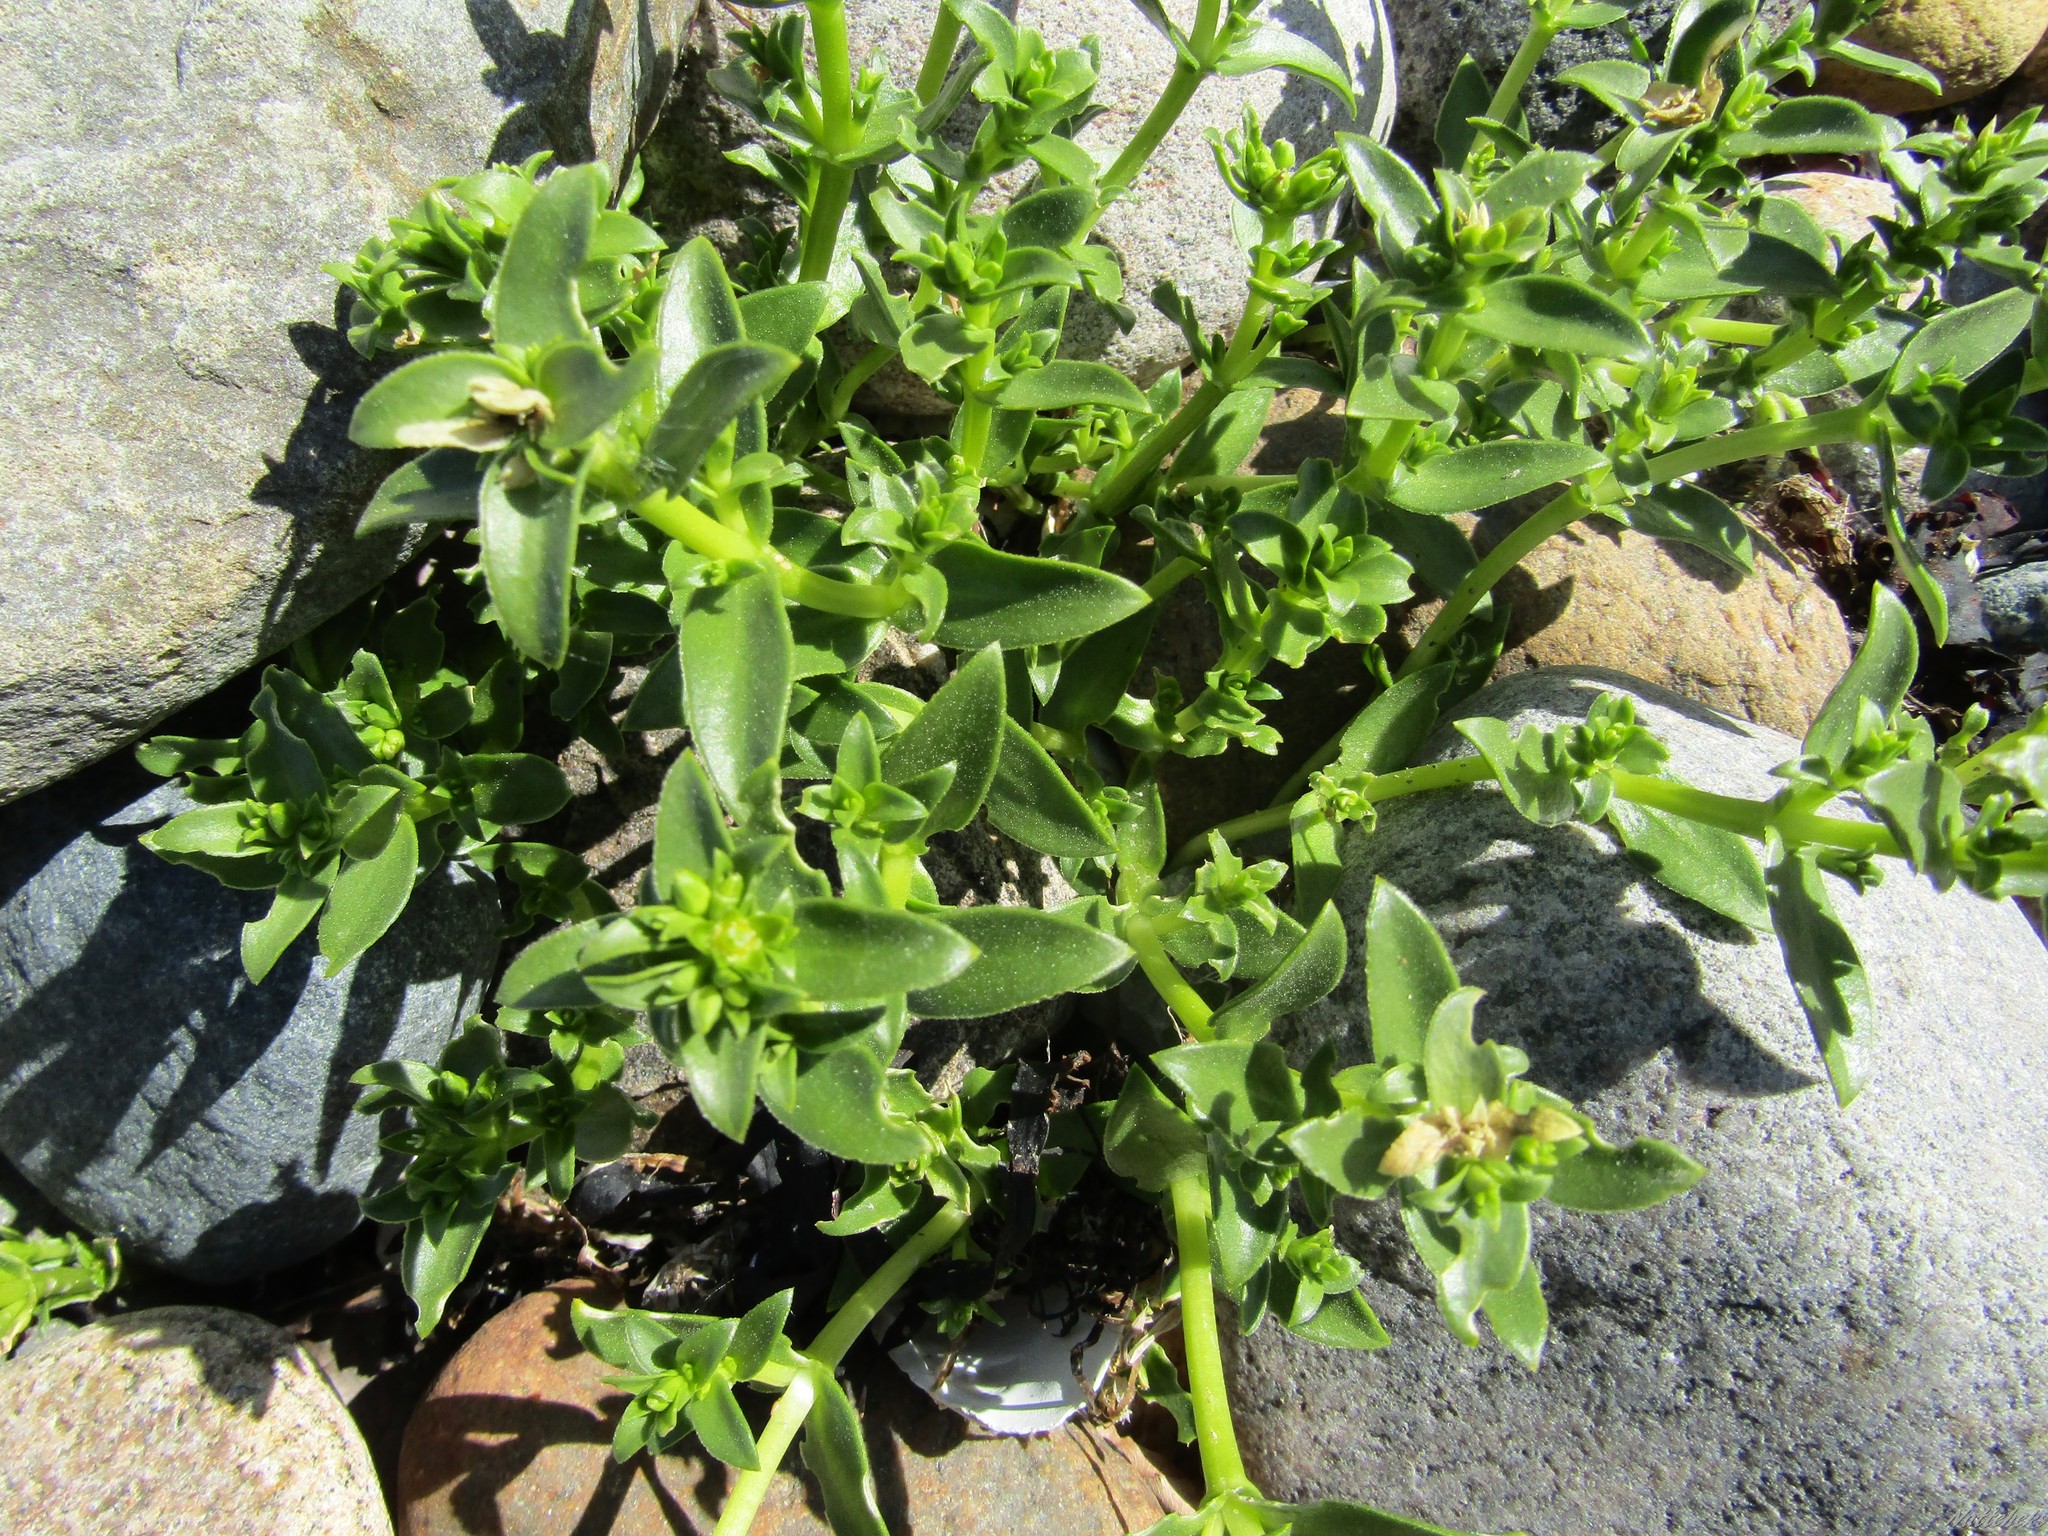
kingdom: Plantae
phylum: Tracheophyta
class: Magnoliopsida
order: Caryophyllales
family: Caryophyllaceae
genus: Honckenya
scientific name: Honckenya peploides
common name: Sea sandwort
